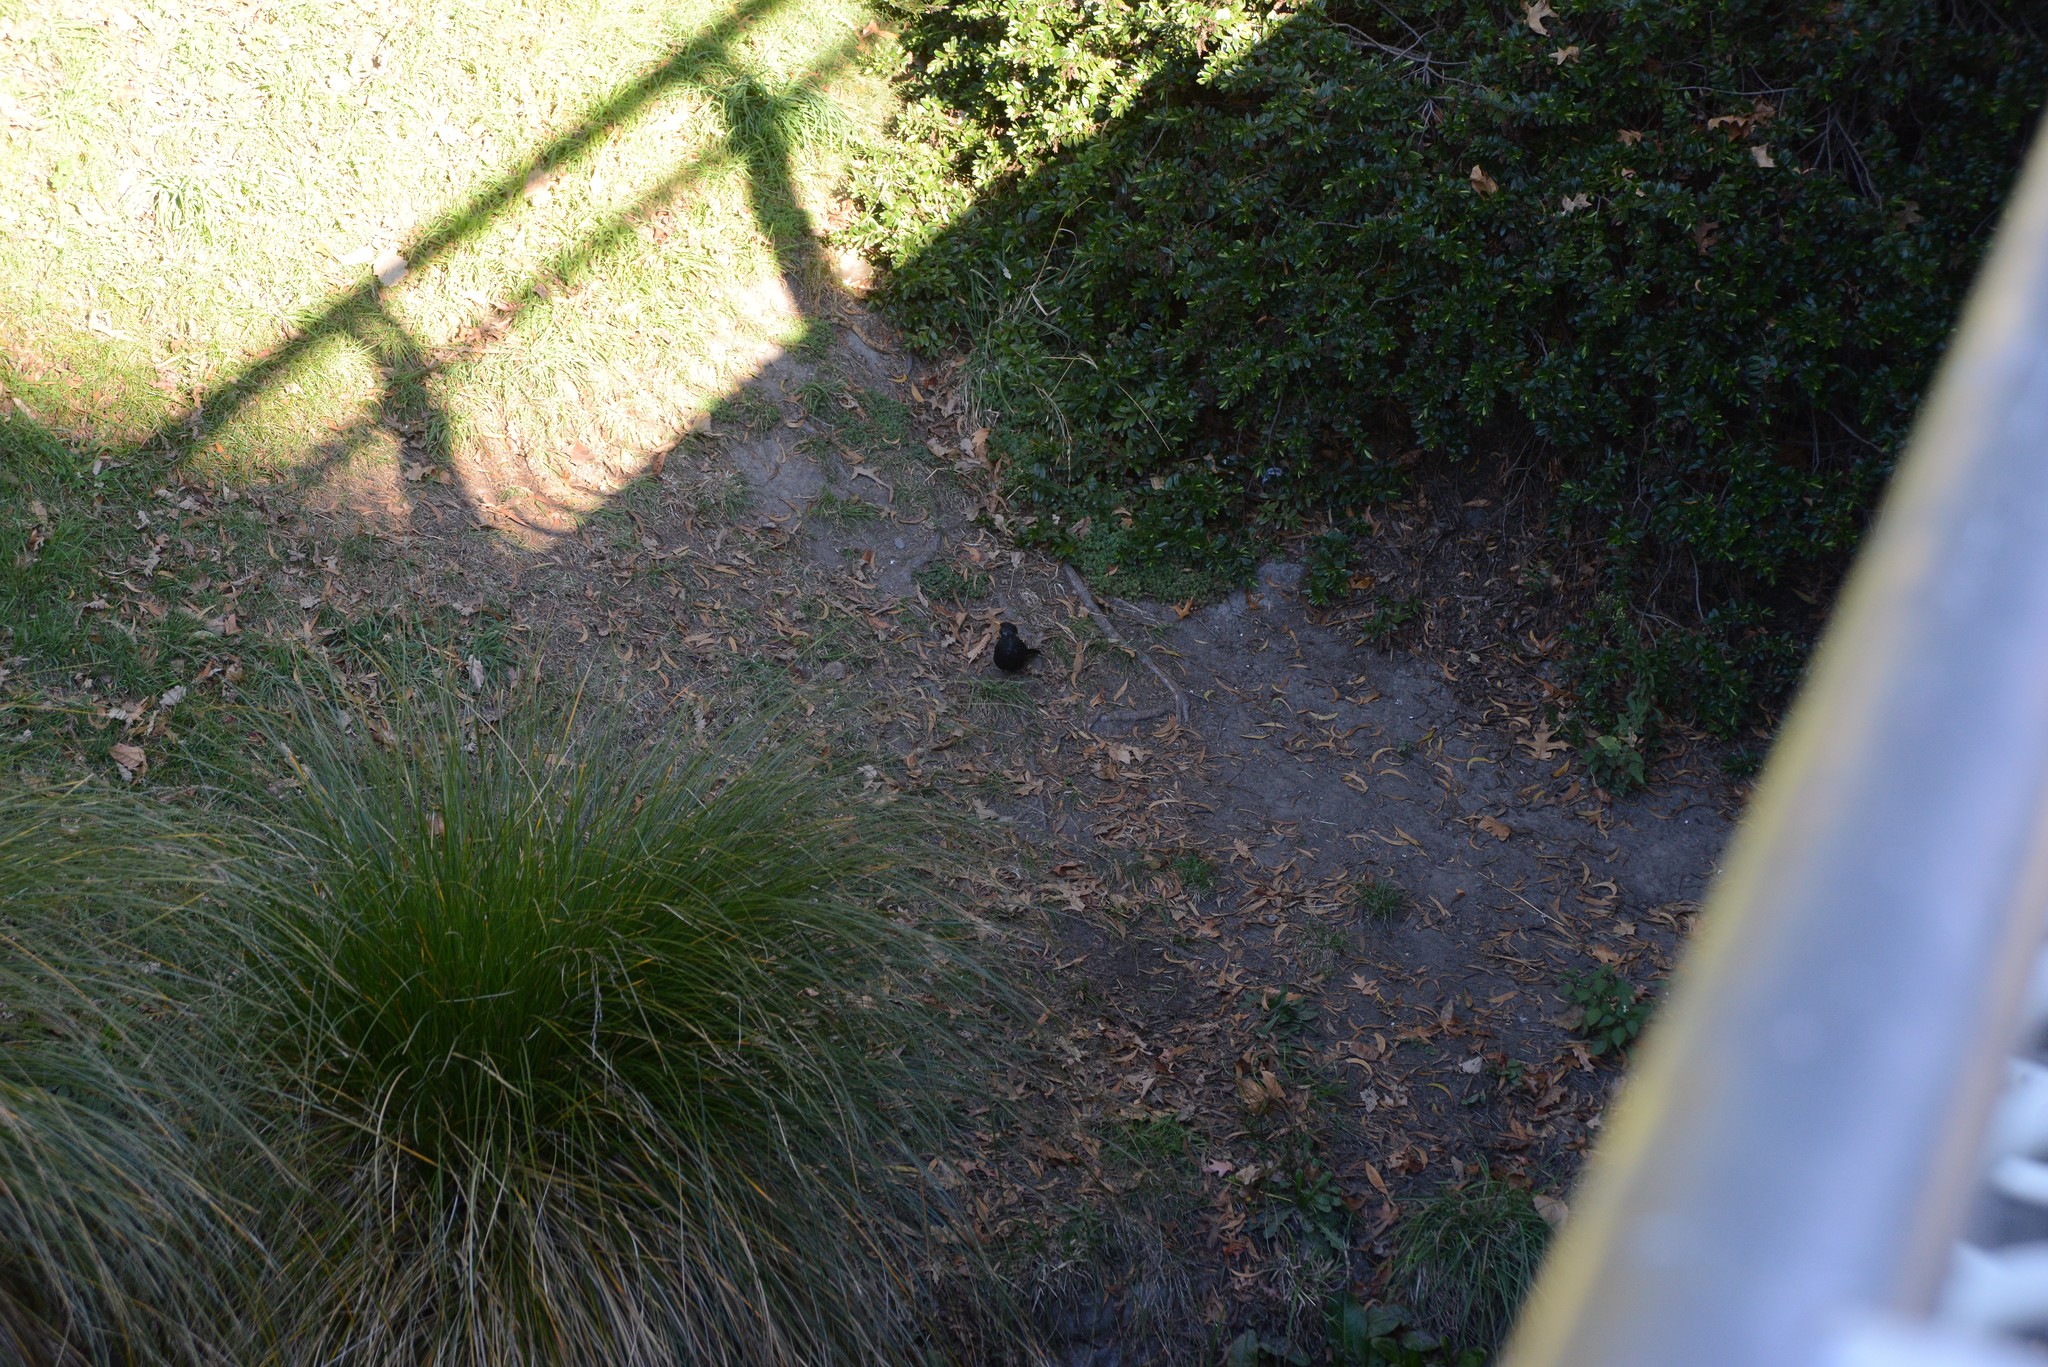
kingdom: Animalia
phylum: Chordata
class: Aves
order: Passeriformes
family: Turdidae
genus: Turdus
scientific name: Turdus merula
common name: Common blackbird
